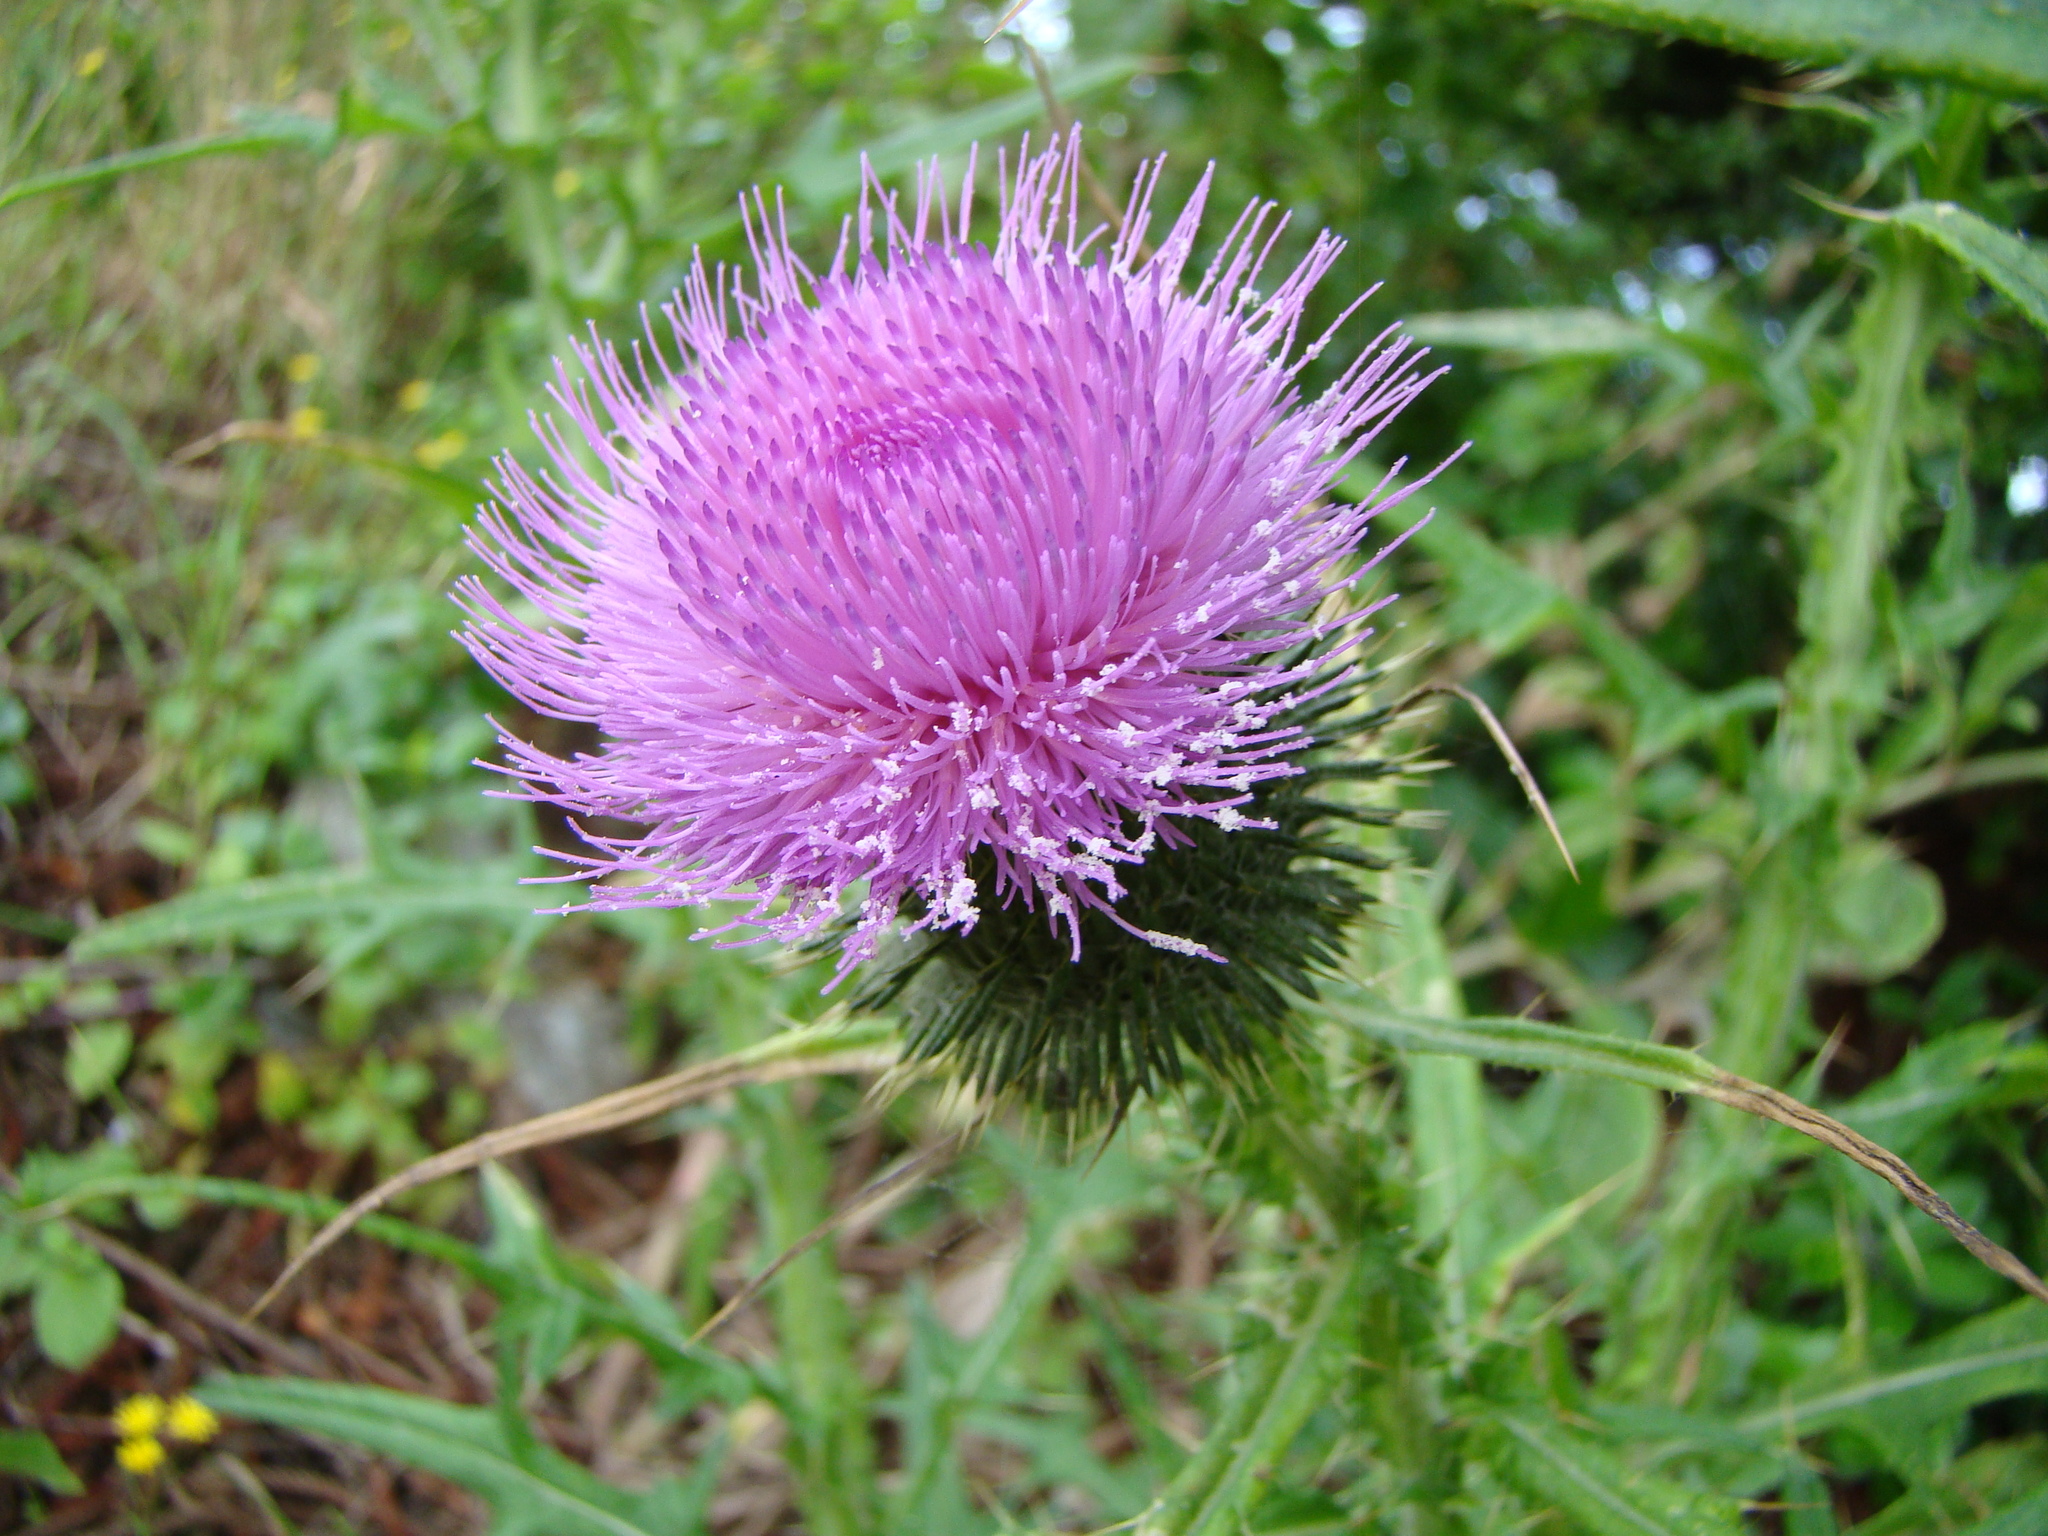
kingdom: Plantae
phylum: Tracheophyta
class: Magnoliopsida
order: Asterales
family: Asteraceae
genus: Cirsium
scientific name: Cirsium vulgare
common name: Bull thistle
